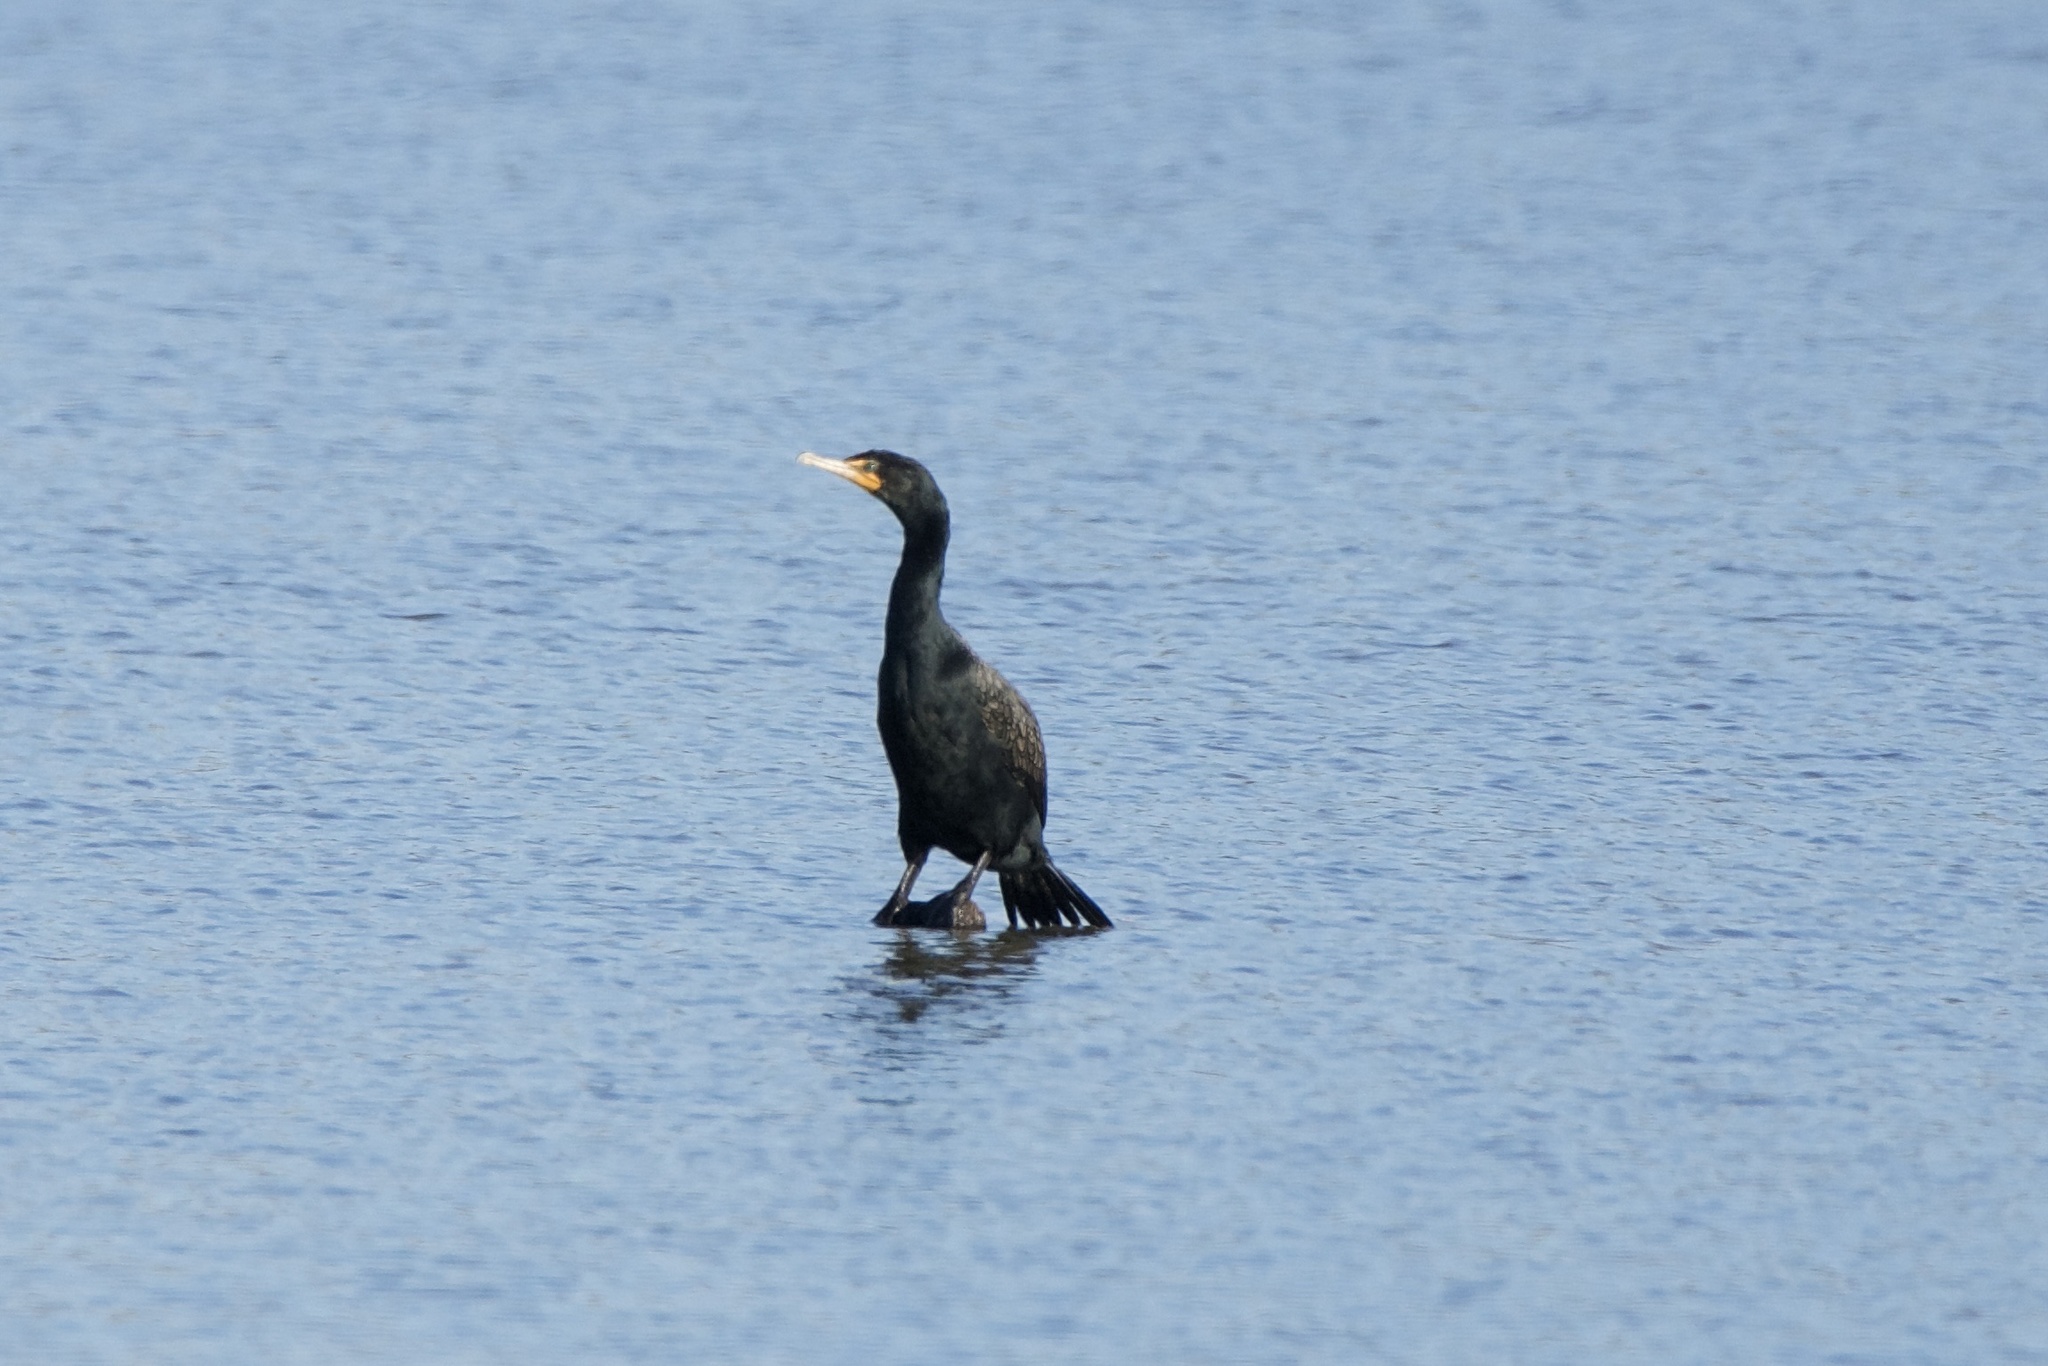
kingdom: Animalia
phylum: Chordata
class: Aves
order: Suliformes
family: Phalacrocoracidae
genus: Phalacrocorax
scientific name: Phalacrocorax auritus
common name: Double-crested cormorant
